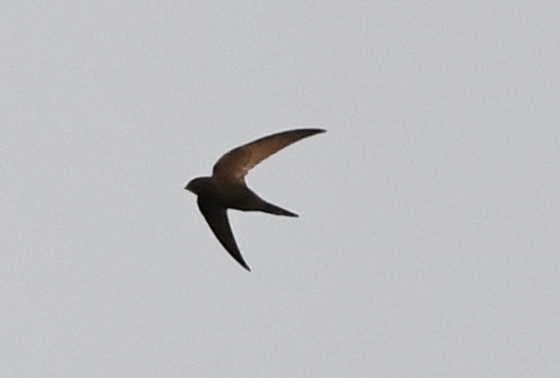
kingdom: Animalia
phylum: Chordata
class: Aves
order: Apodiformes
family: Apodidae
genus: Apus
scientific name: Apus apus
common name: Common swift
